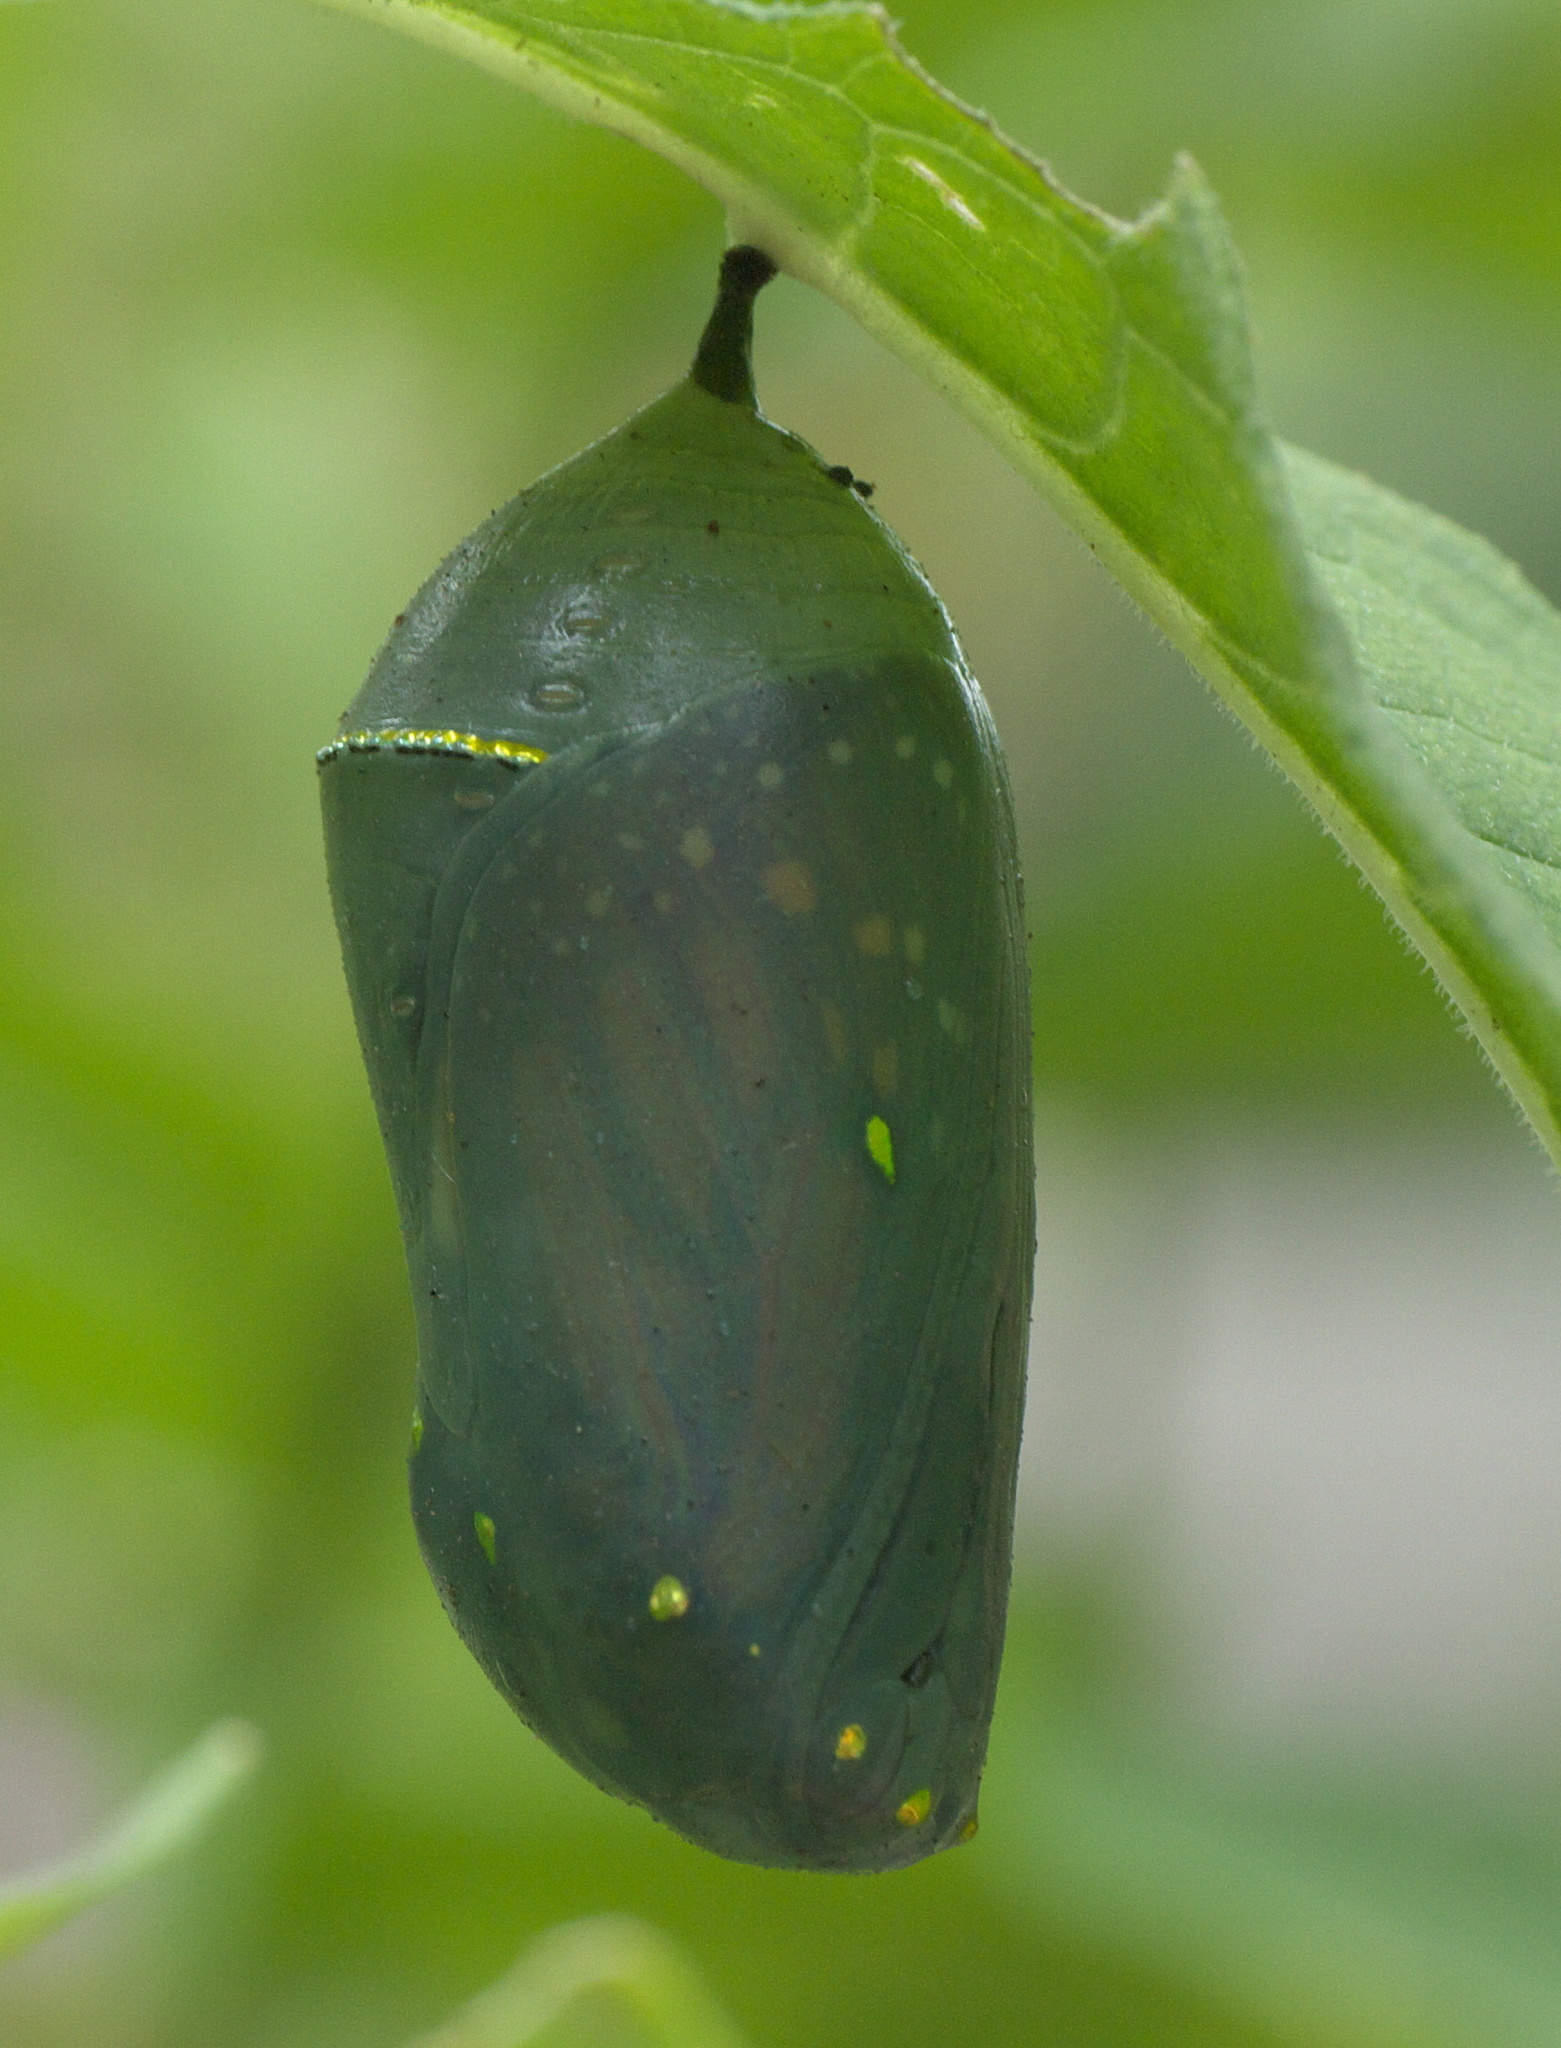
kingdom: Animalia
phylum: Arthropoda
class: Insecta
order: Lepidoptera
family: Nymphalidae
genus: Danaus
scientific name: Danaus plexippus
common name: Monarch
